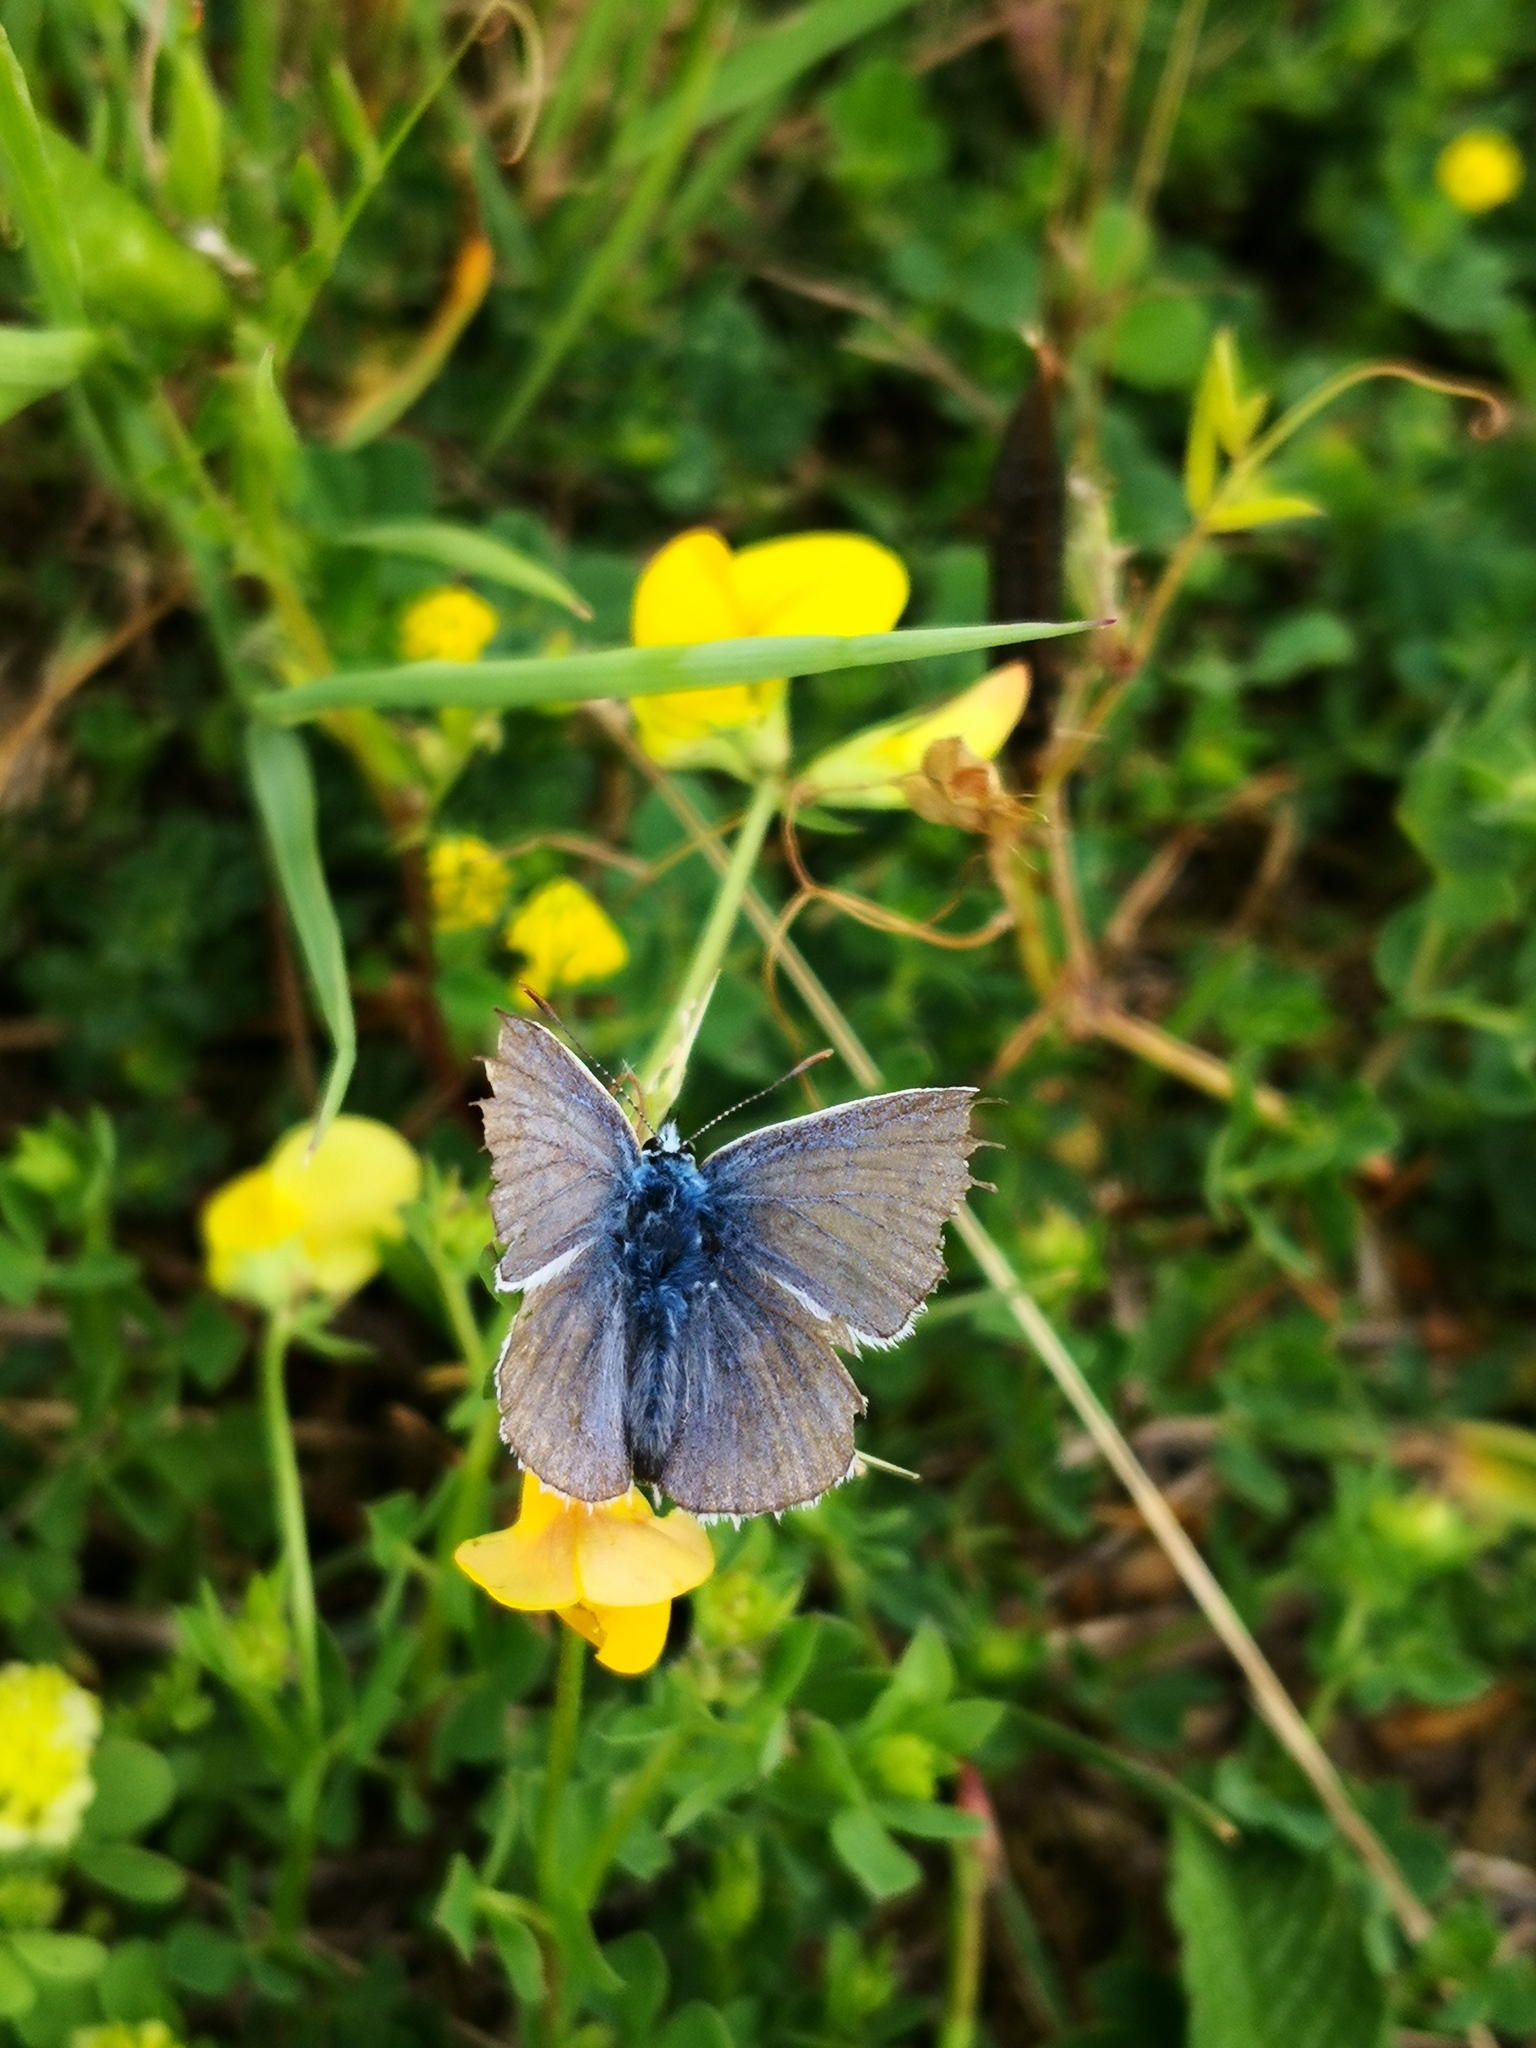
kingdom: Animalia
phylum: Arthropoda
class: Insecta
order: Lepidoptera
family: Lycaenidae
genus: Polyommatus
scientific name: Polyommatus icarus
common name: Common blue
